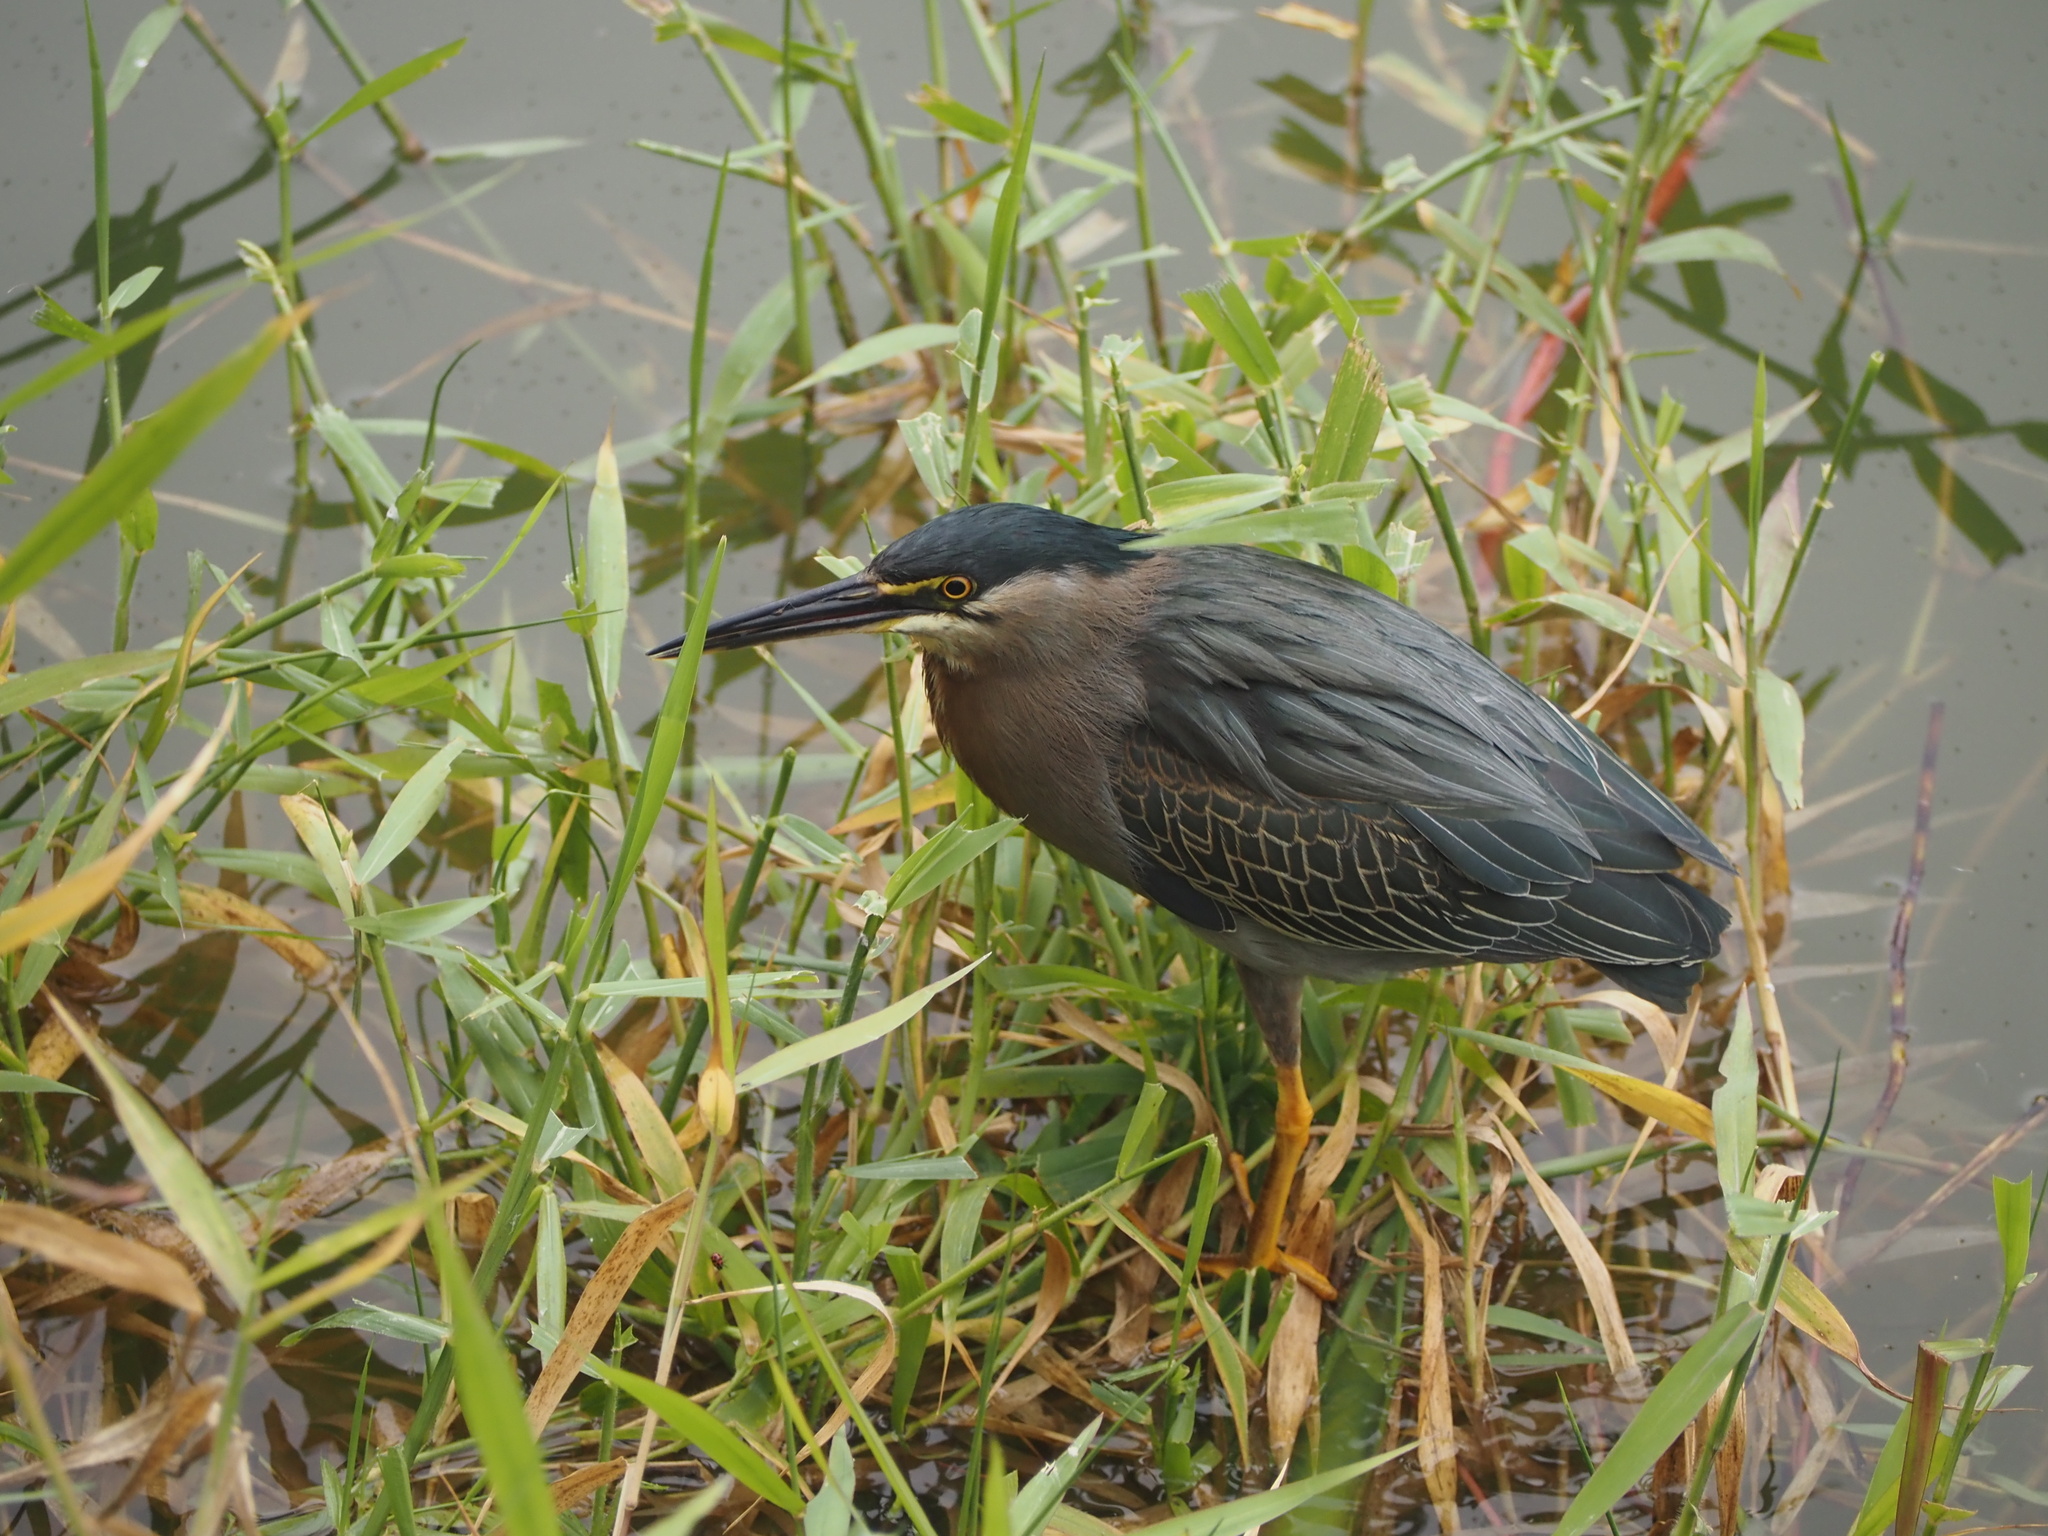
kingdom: Animalia
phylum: Chordata
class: Aves
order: Pelecaniformes
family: Ardeidae
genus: Butorides
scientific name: Butorides striata
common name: Striated heron
